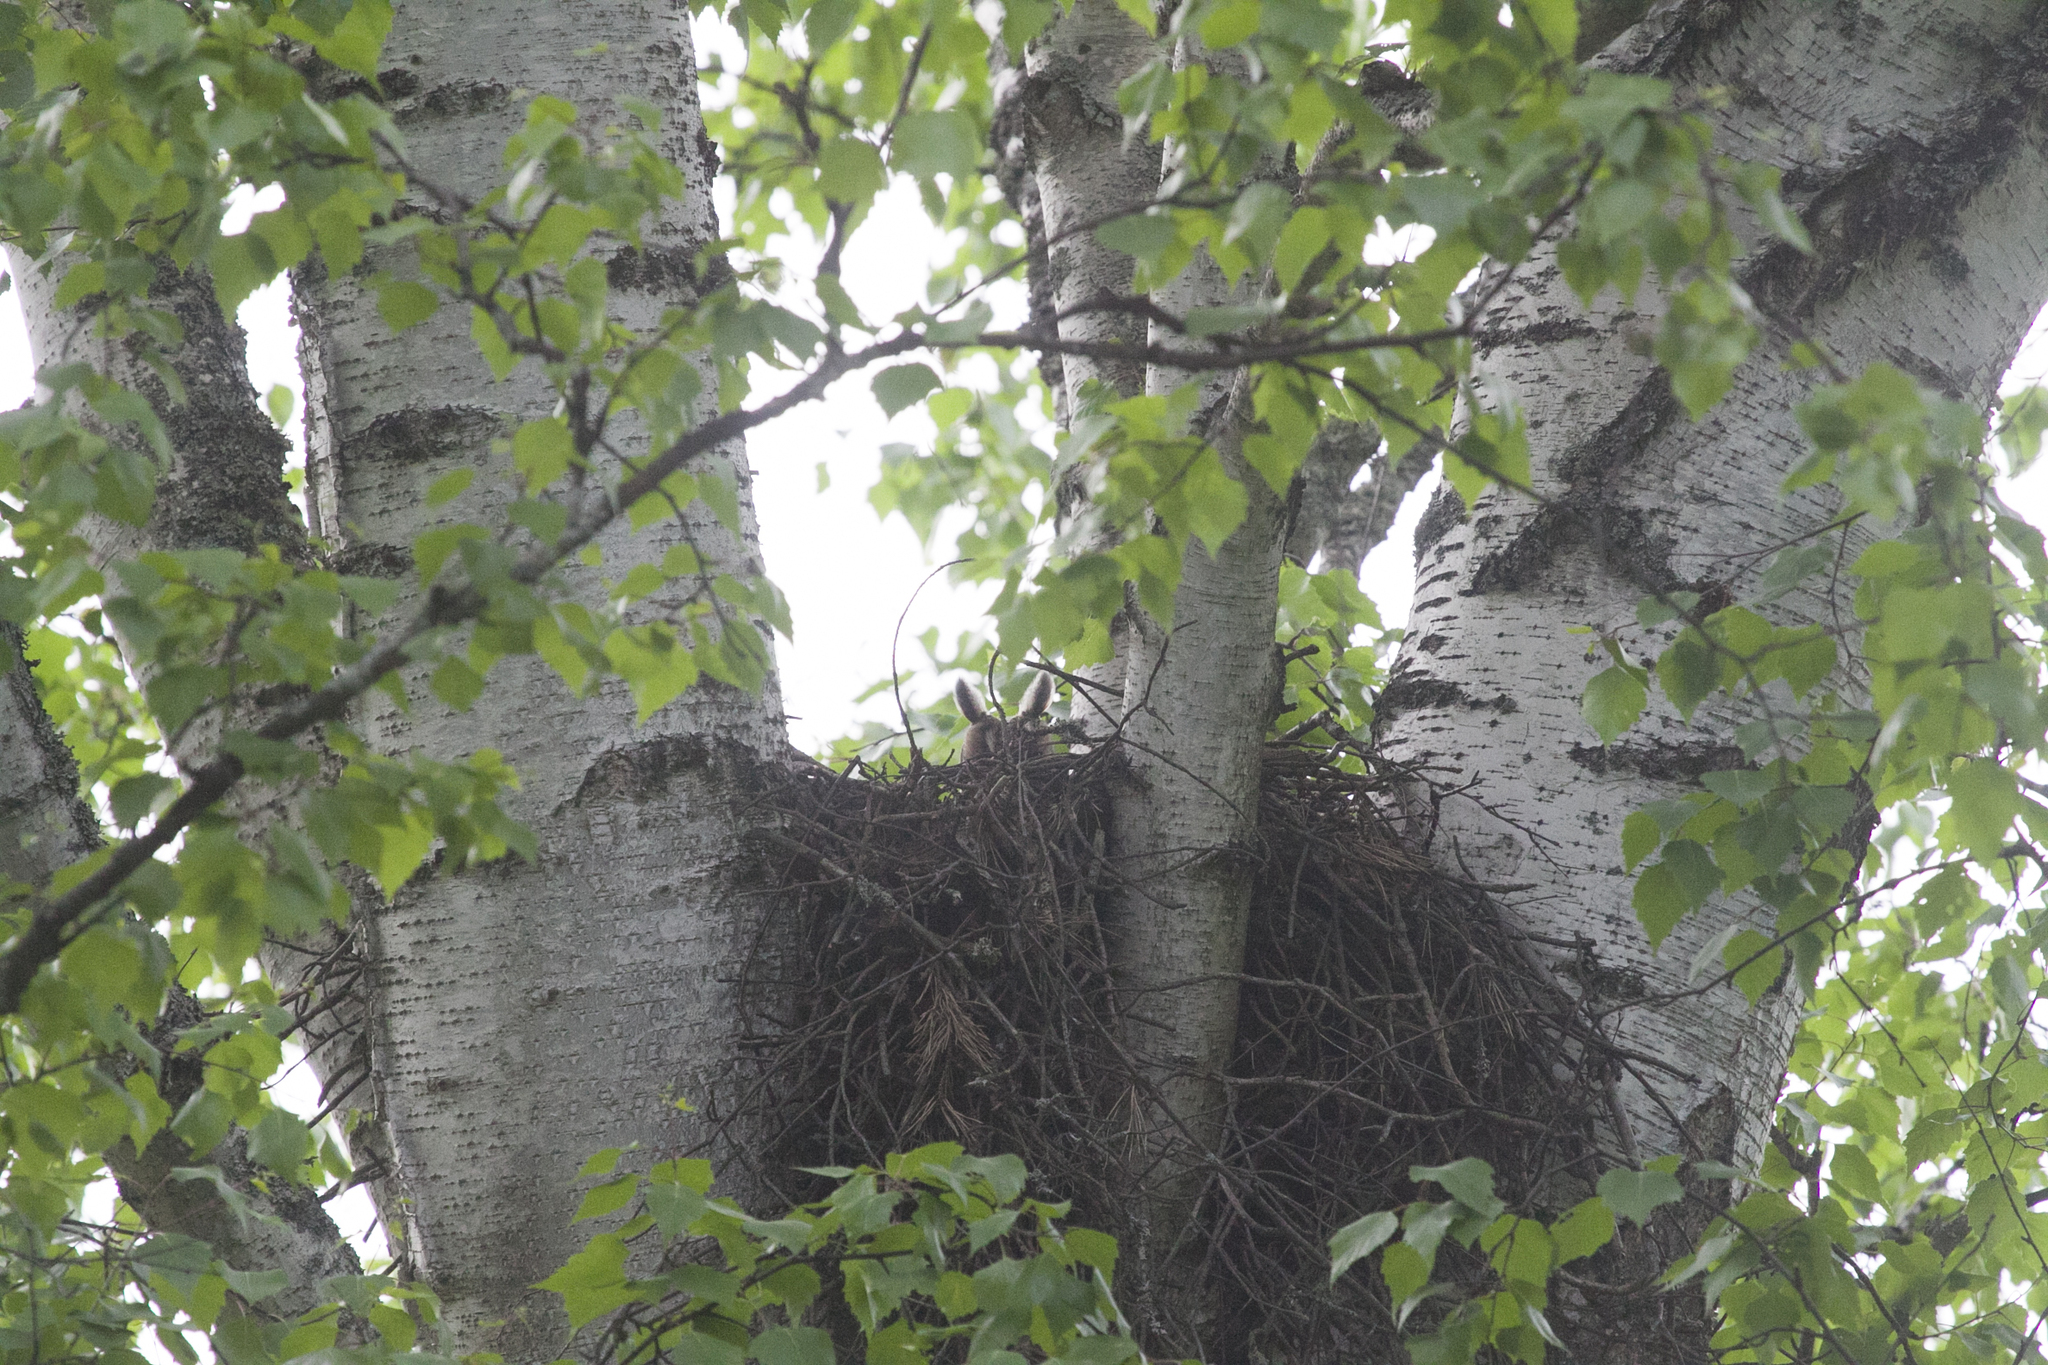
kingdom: Animalia
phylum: Chordata
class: Aves
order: Strigiformes
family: Strigidae
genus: Asio
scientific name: Asio otus
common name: Long-eared owl
